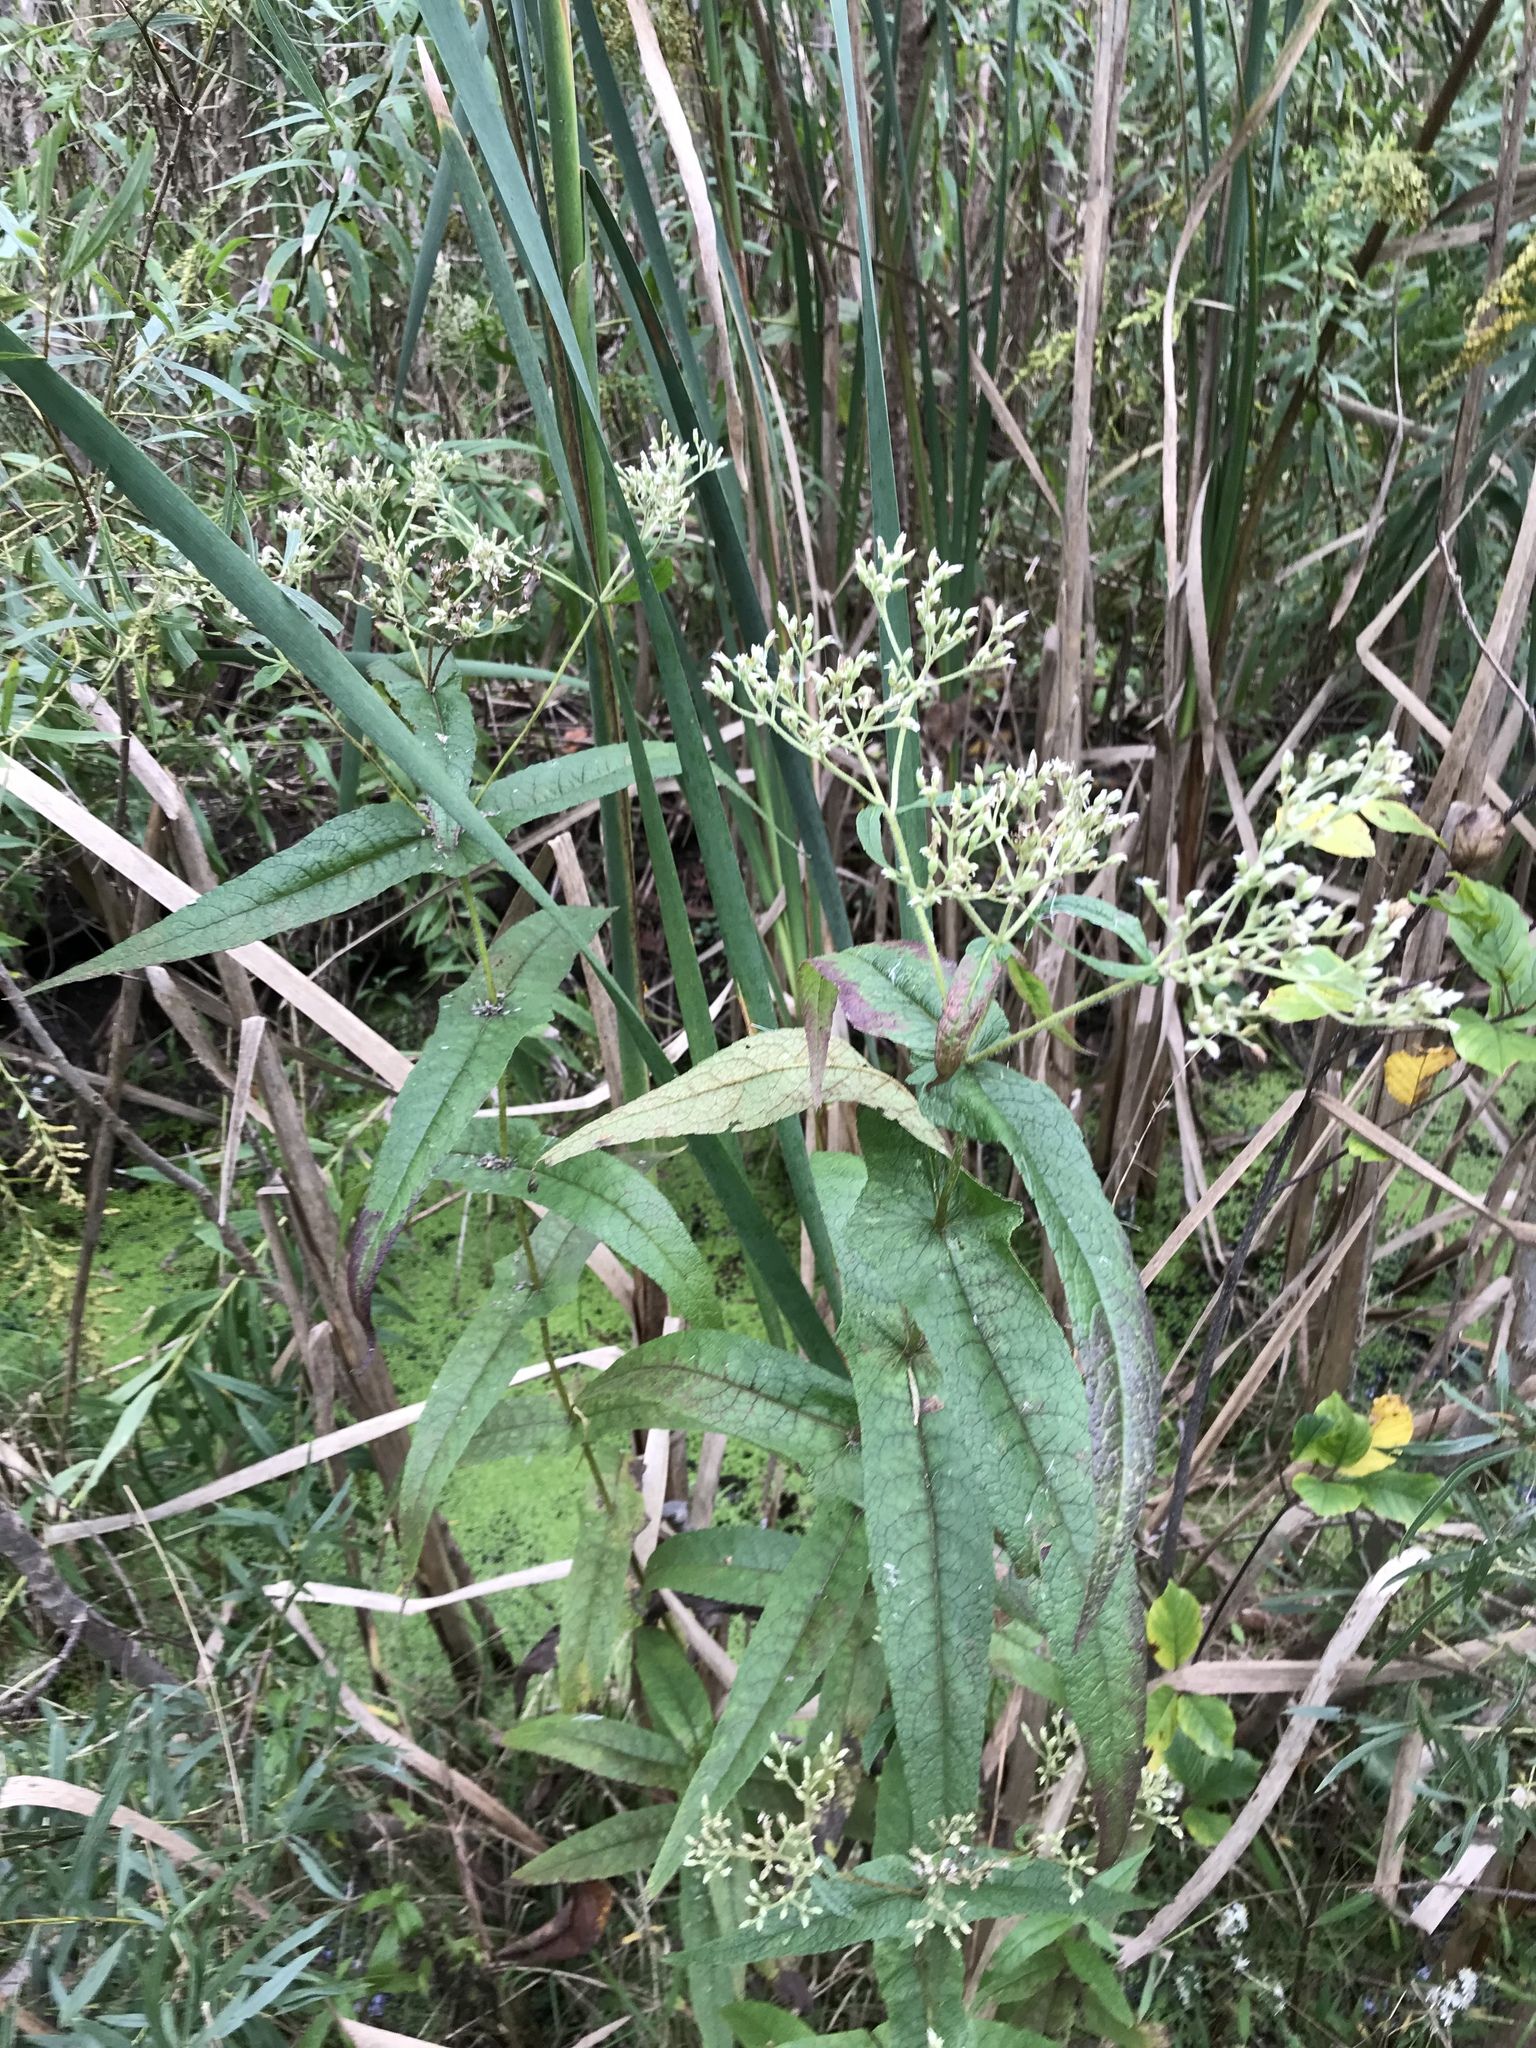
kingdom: Plantae
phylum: Tracheophyta
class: Magnoliopsida
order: Asterales
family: Asteraceae
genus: Eupatorium
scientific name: Eupatorium perfoliatum
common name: Boneset
